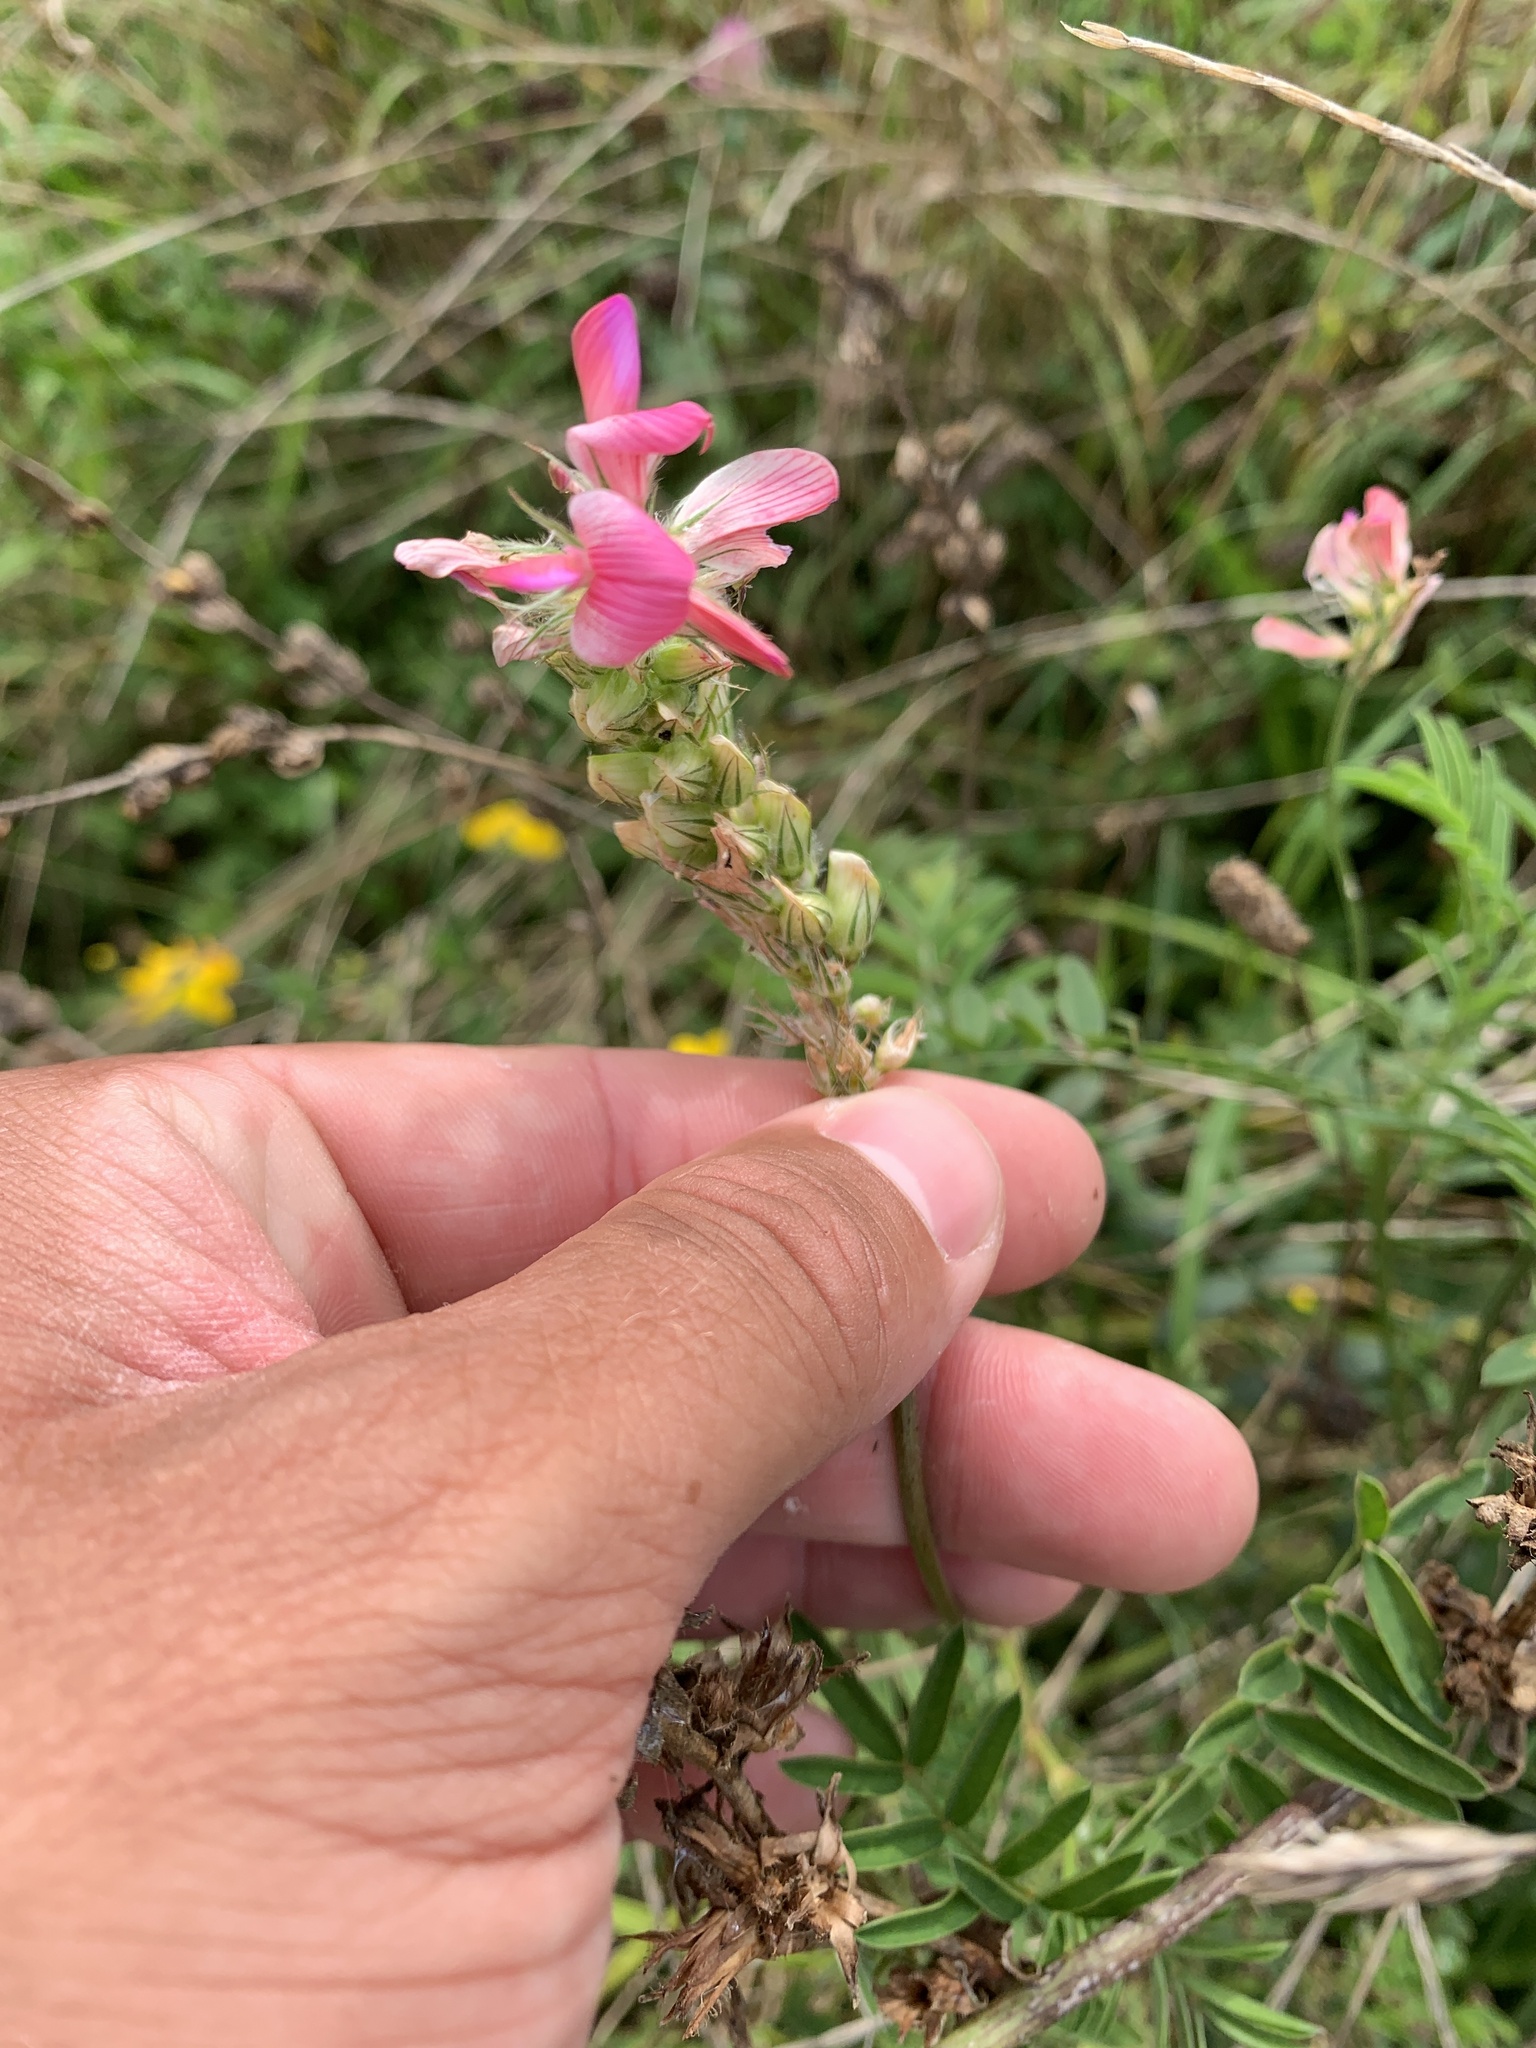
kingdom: Plantae
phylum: Tracheophyta
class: Magnoliopsida
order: Fabales
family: Fabaceae
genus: Onobrychis
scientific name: Onobrychis viciifolia
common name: Sainfoin
